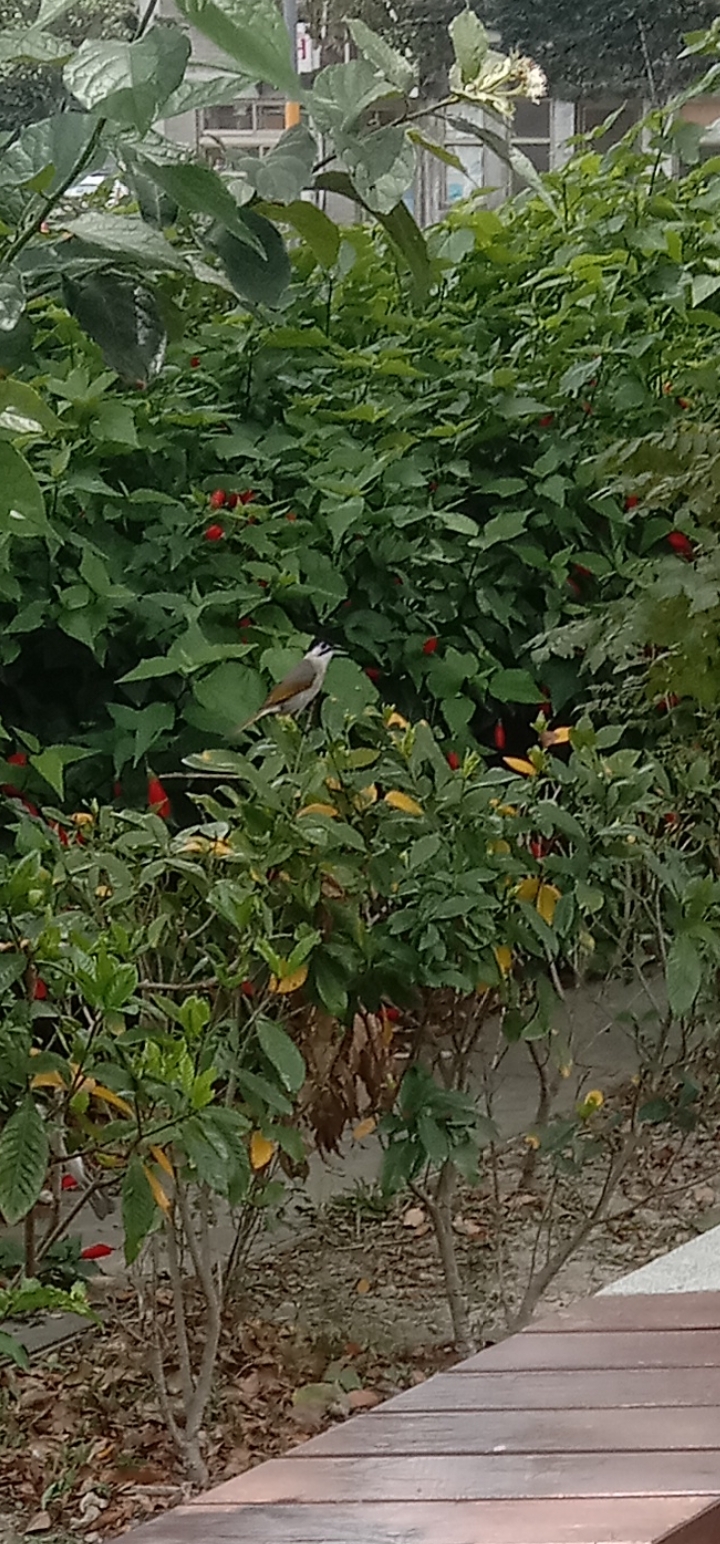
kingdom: Animalia
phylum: Chordata
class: Aves
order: Passeriformes
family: Pycnonotidae
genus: Pycnonotus
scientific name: Pycnonotus taivanus
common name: Styan's bulbul
